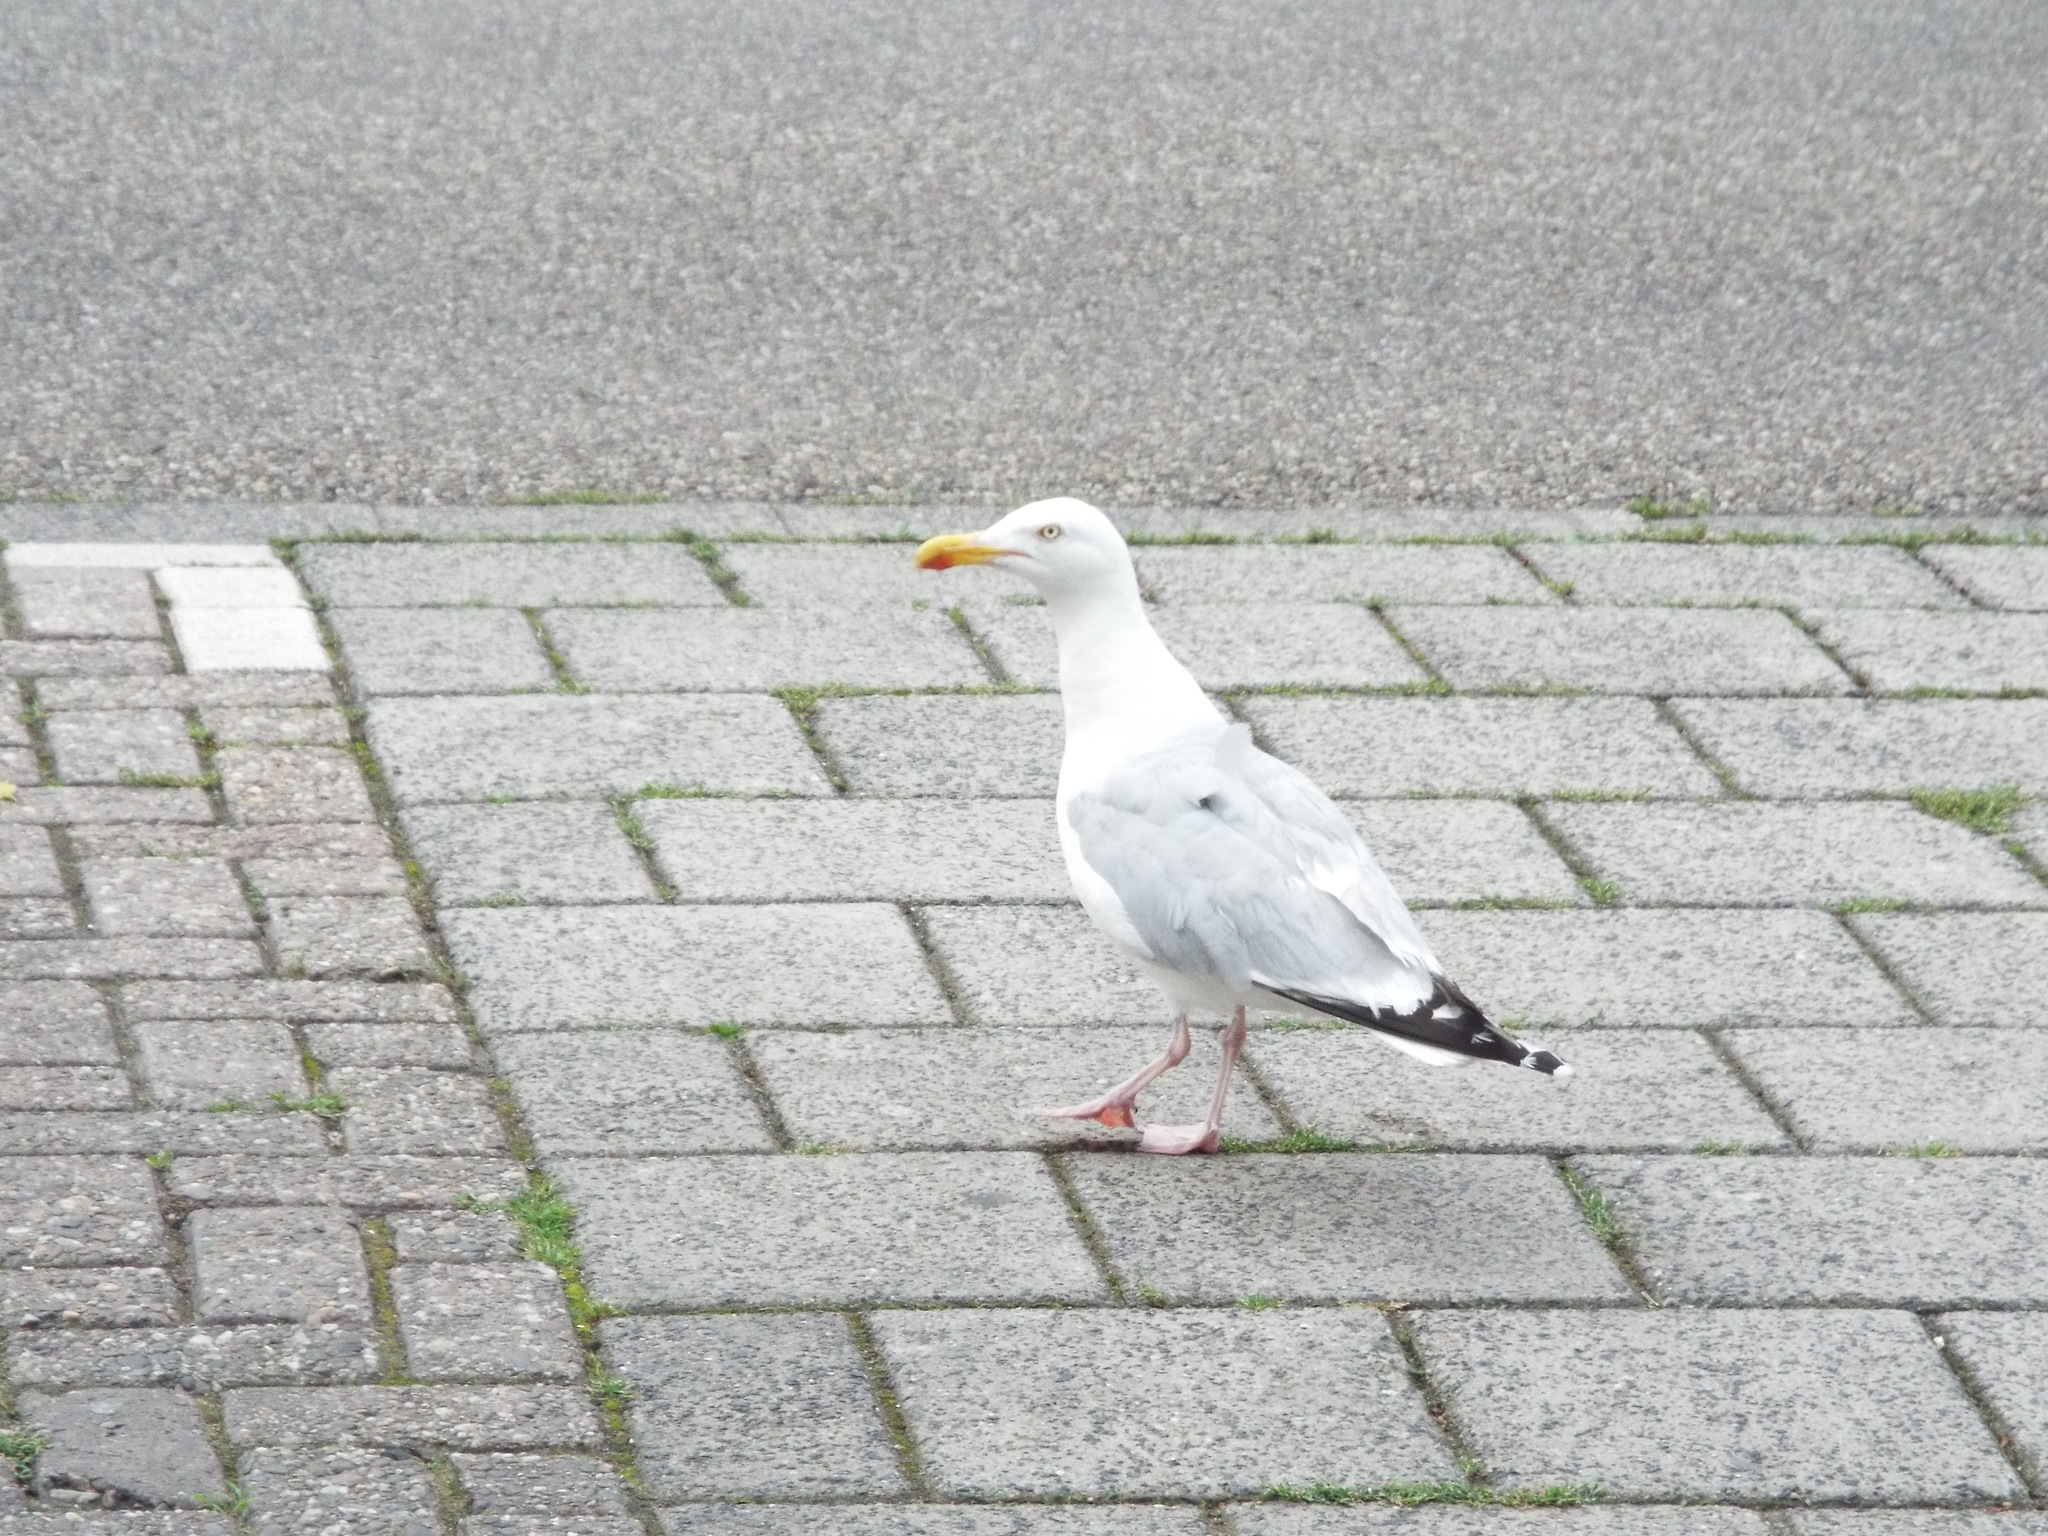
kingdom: Animalia
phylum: Chordata
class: Aves
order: Charadriiformes
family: Laridae
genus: Larus
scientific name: Larus argentatus
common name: Herring gull
